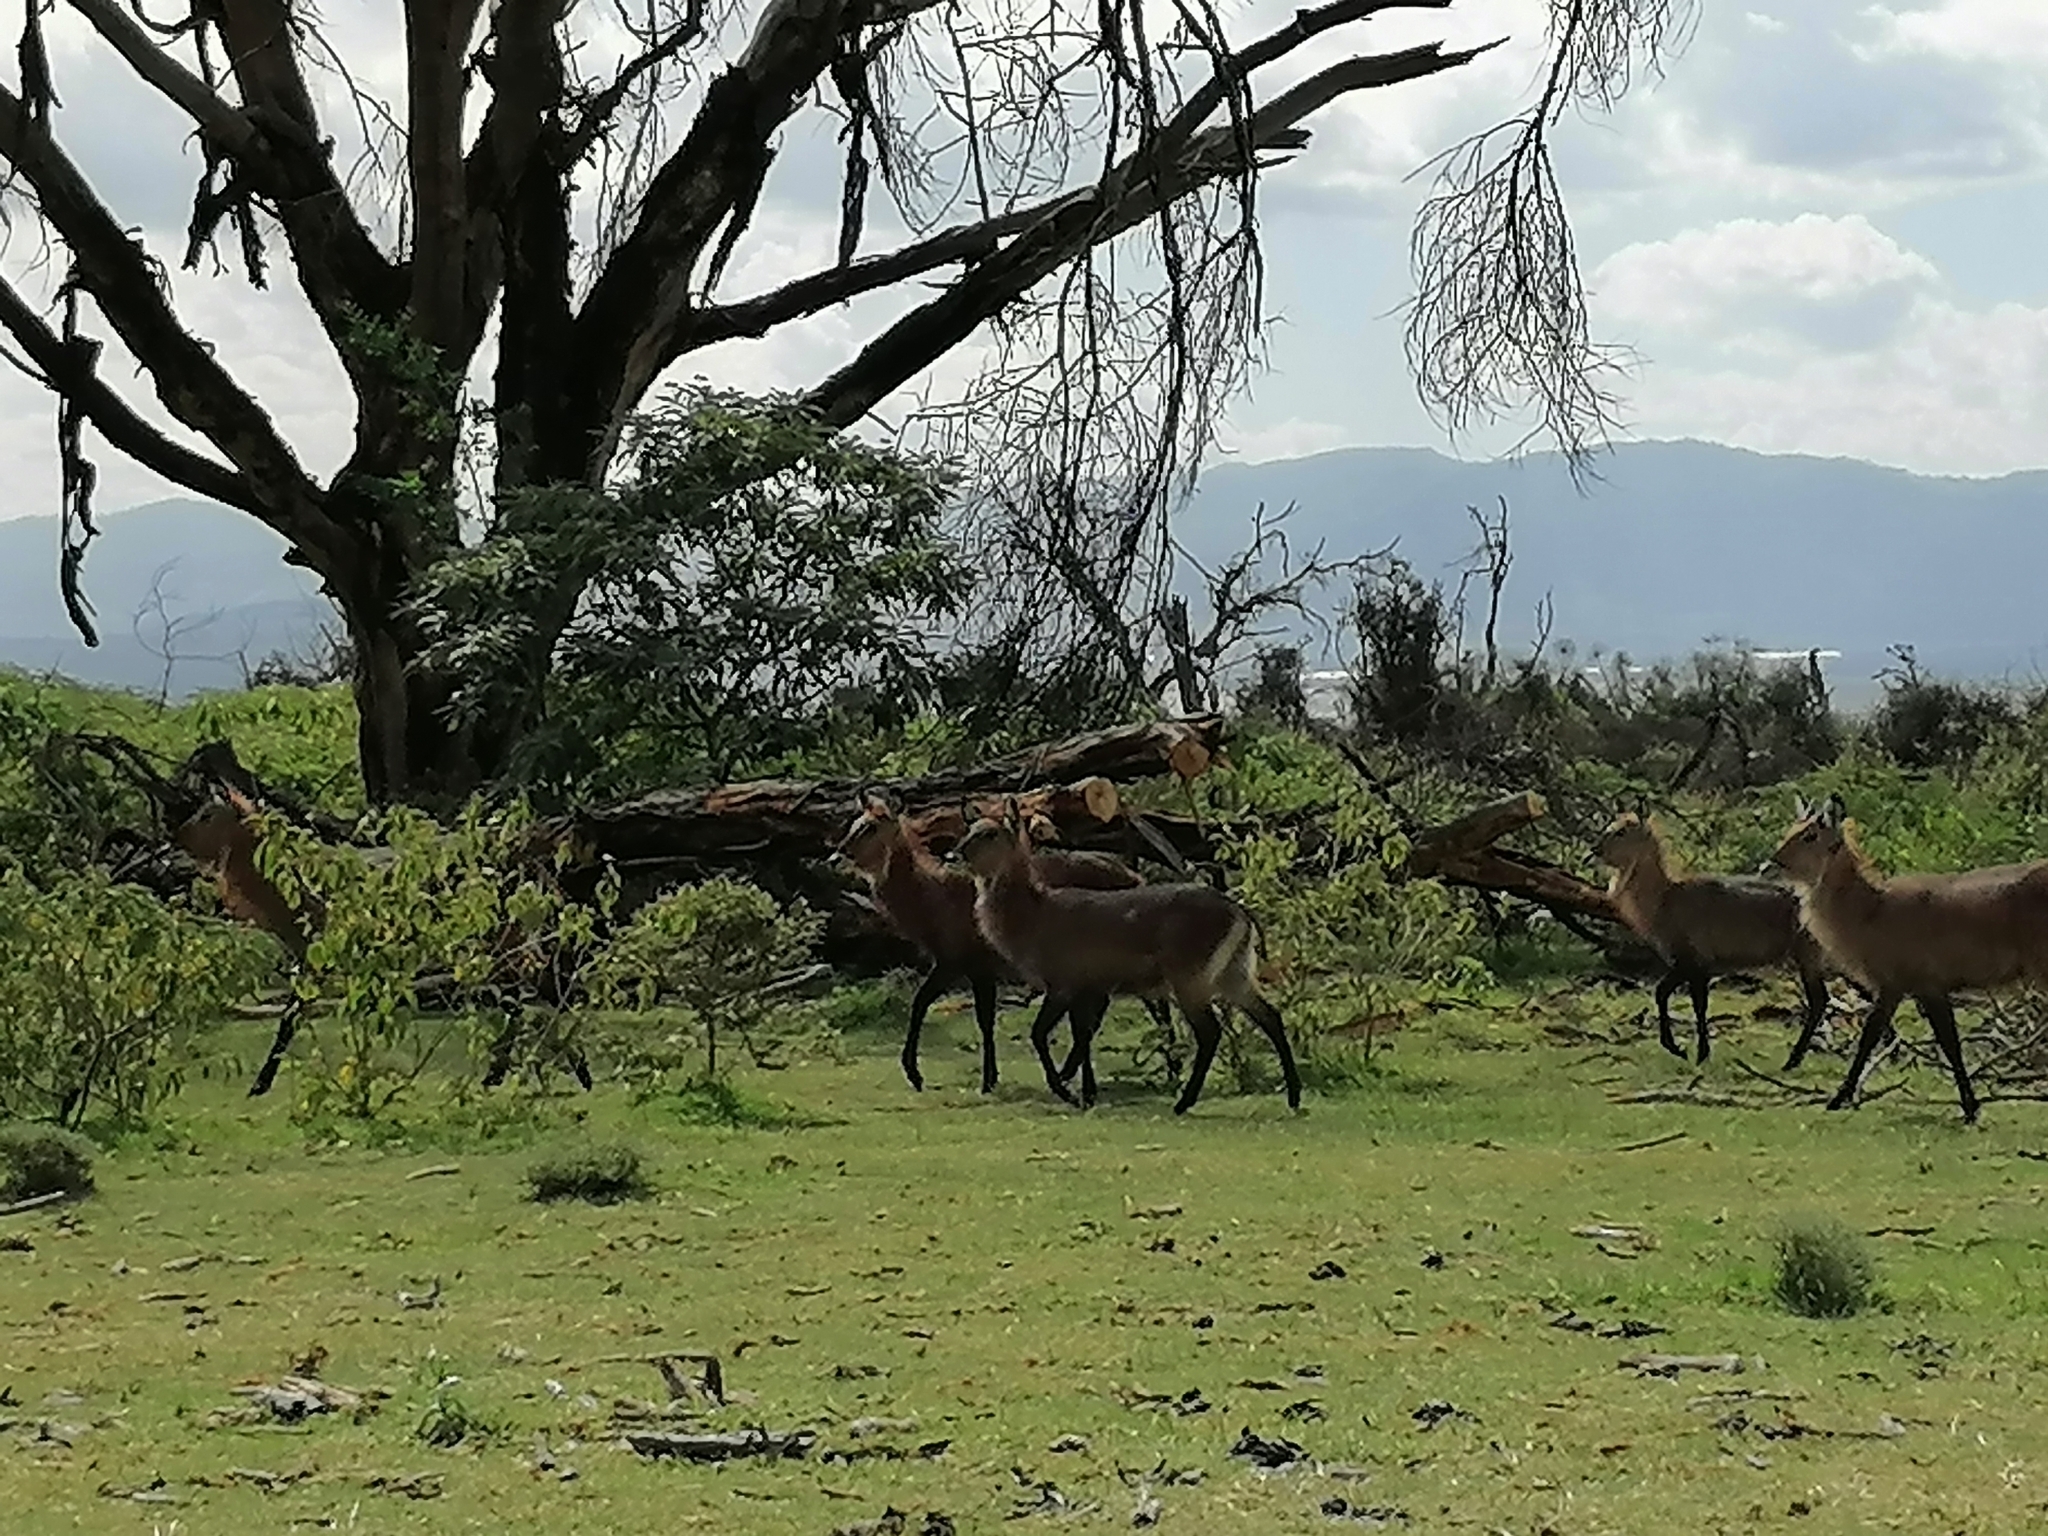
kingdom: Animalia
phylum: Chordata
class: Mammalia
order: Artiodactyla
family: Bovidae
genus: Kobus
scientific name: Kobus ellipsiprymnus
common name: Waterbuck
